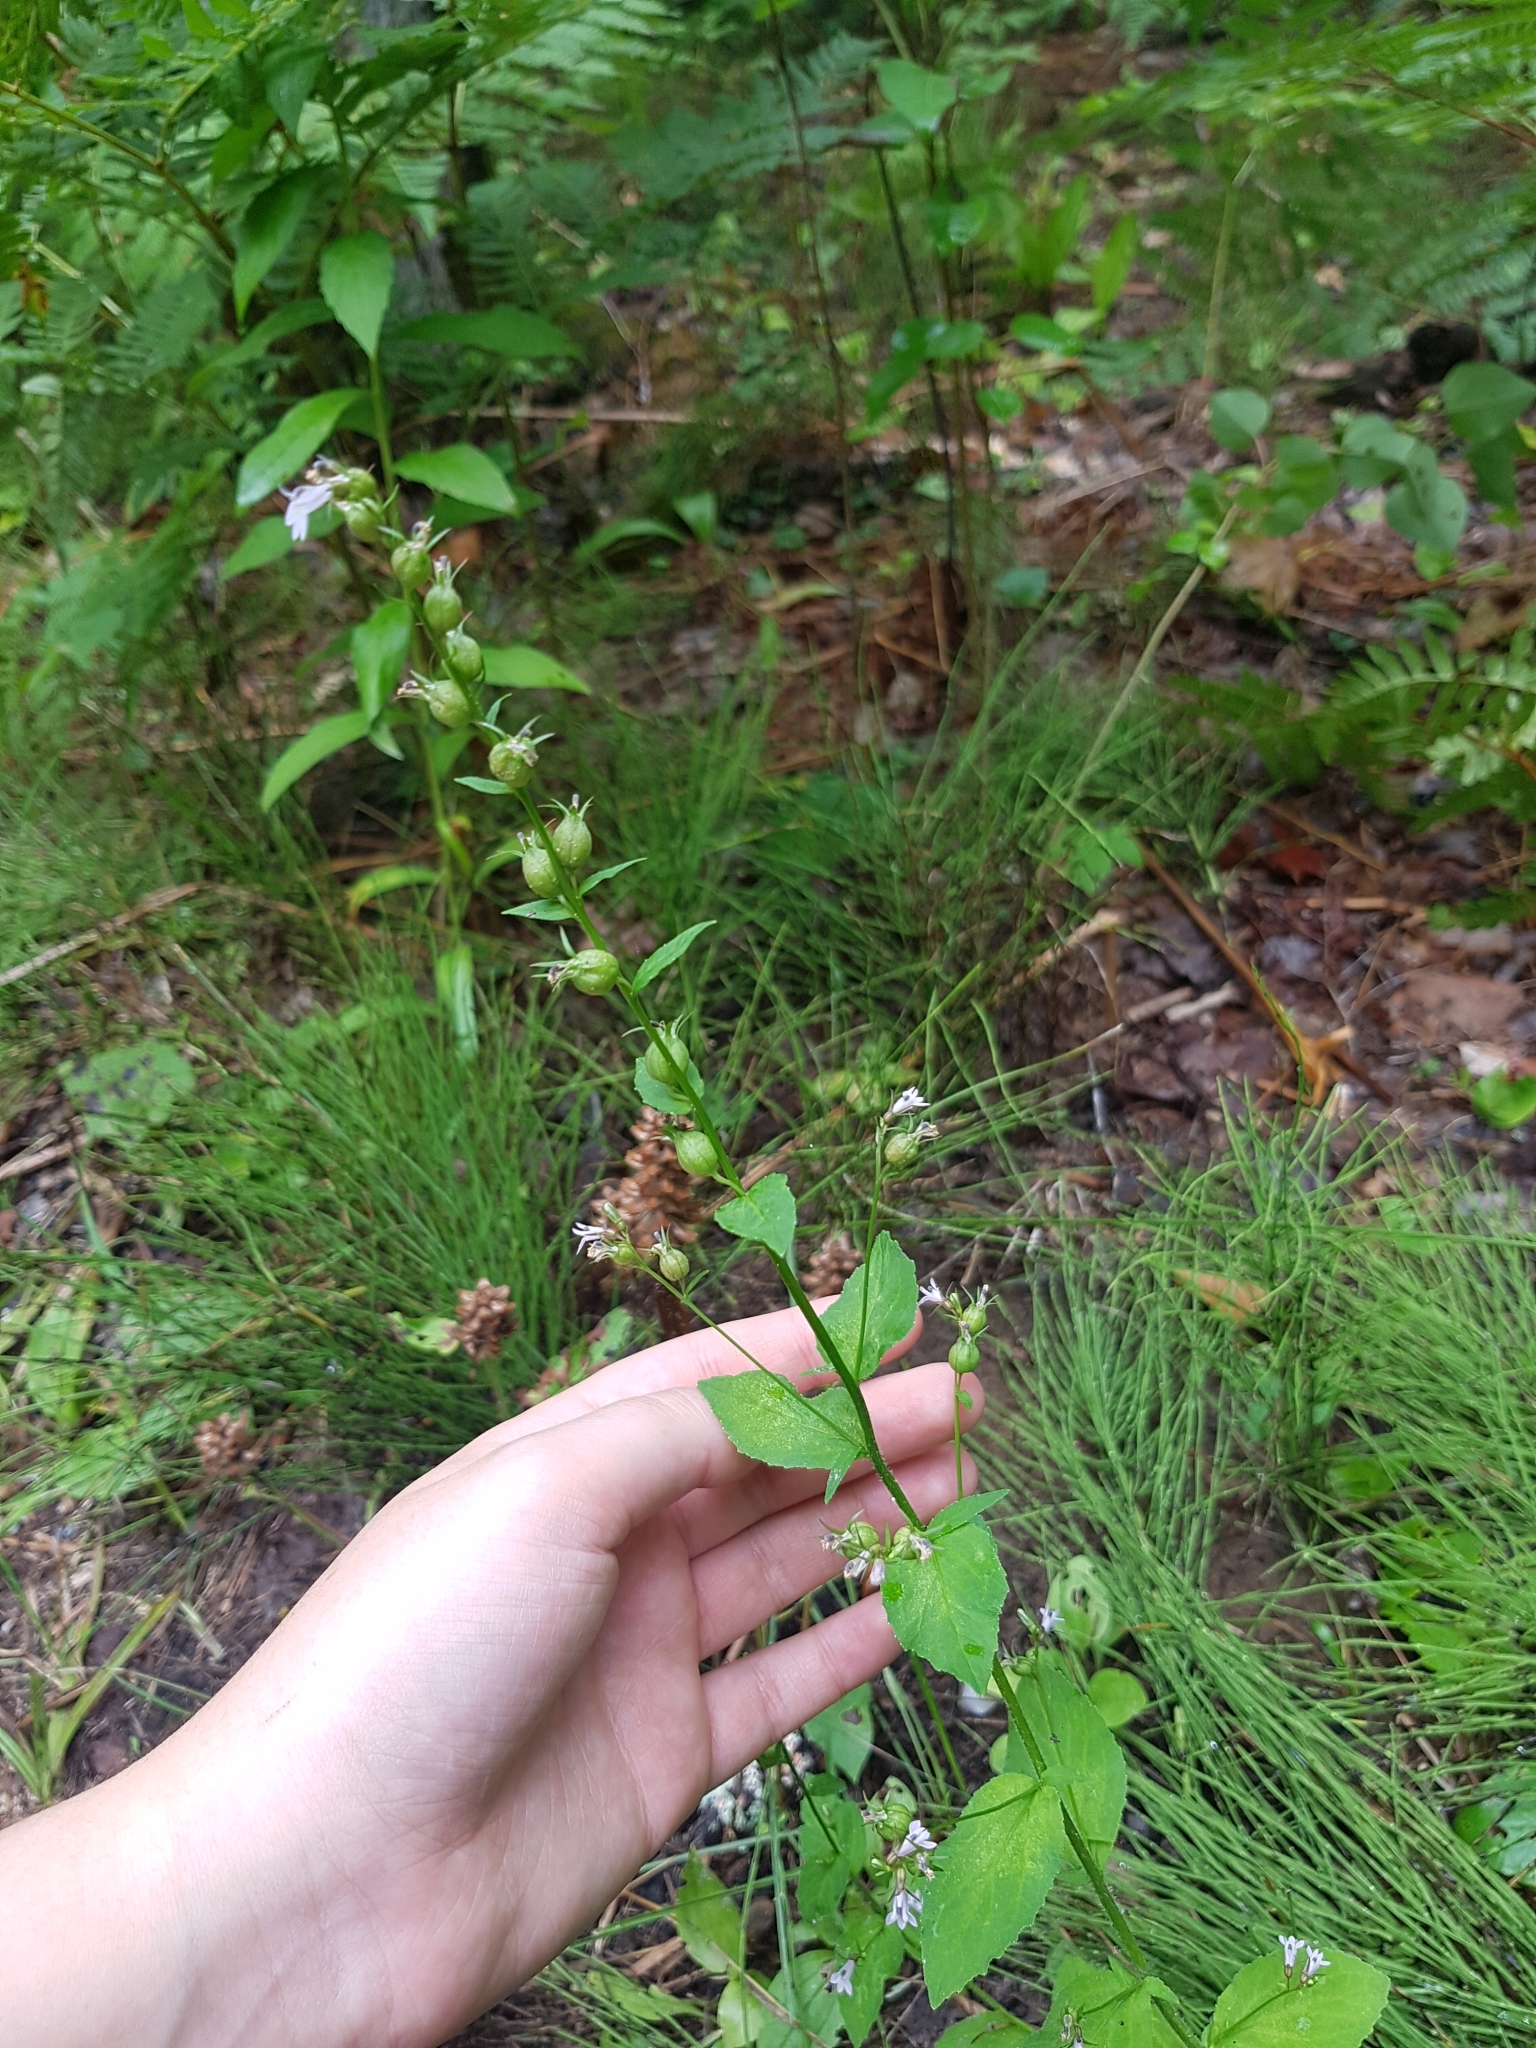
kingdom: Plantae
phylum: Tracheophyta
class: Magnoliopsida
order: Asterales
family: Campanulaceae
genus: Lobelia
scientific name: Lobelia inflata
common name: Indian tobacco
